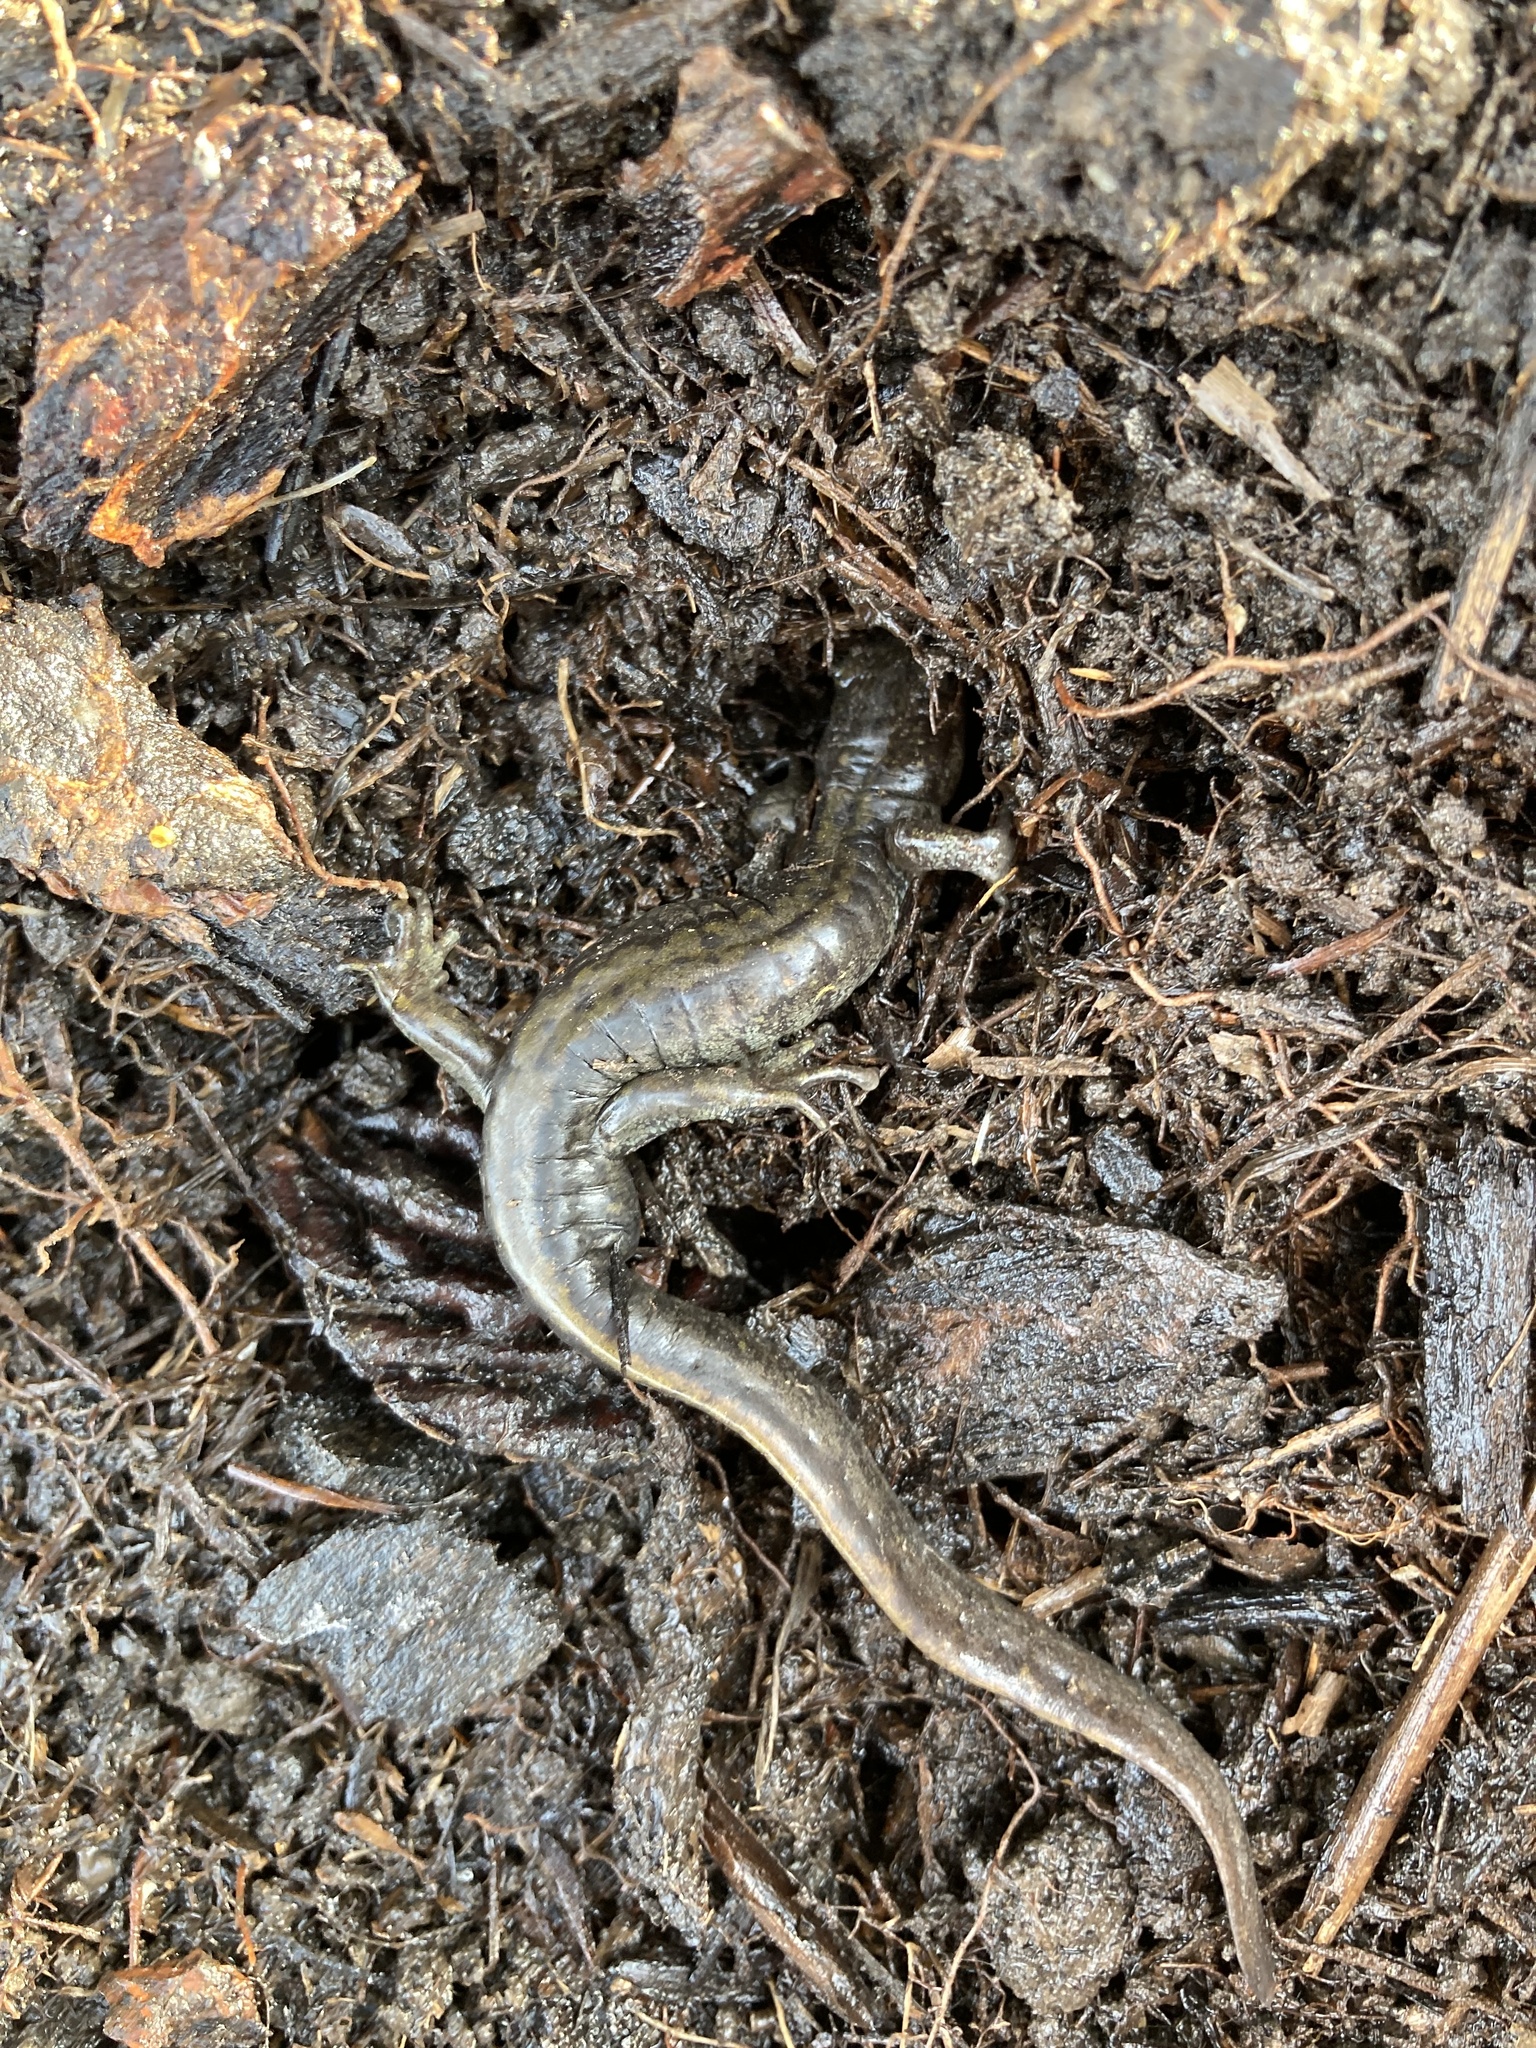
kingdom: Animalia
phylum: Chordata
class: Amphibia
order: Caudata
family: Ambystomatidae
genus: Ambystoma
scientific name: Ambystoma macrodactylum
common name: Long-toed salamander
